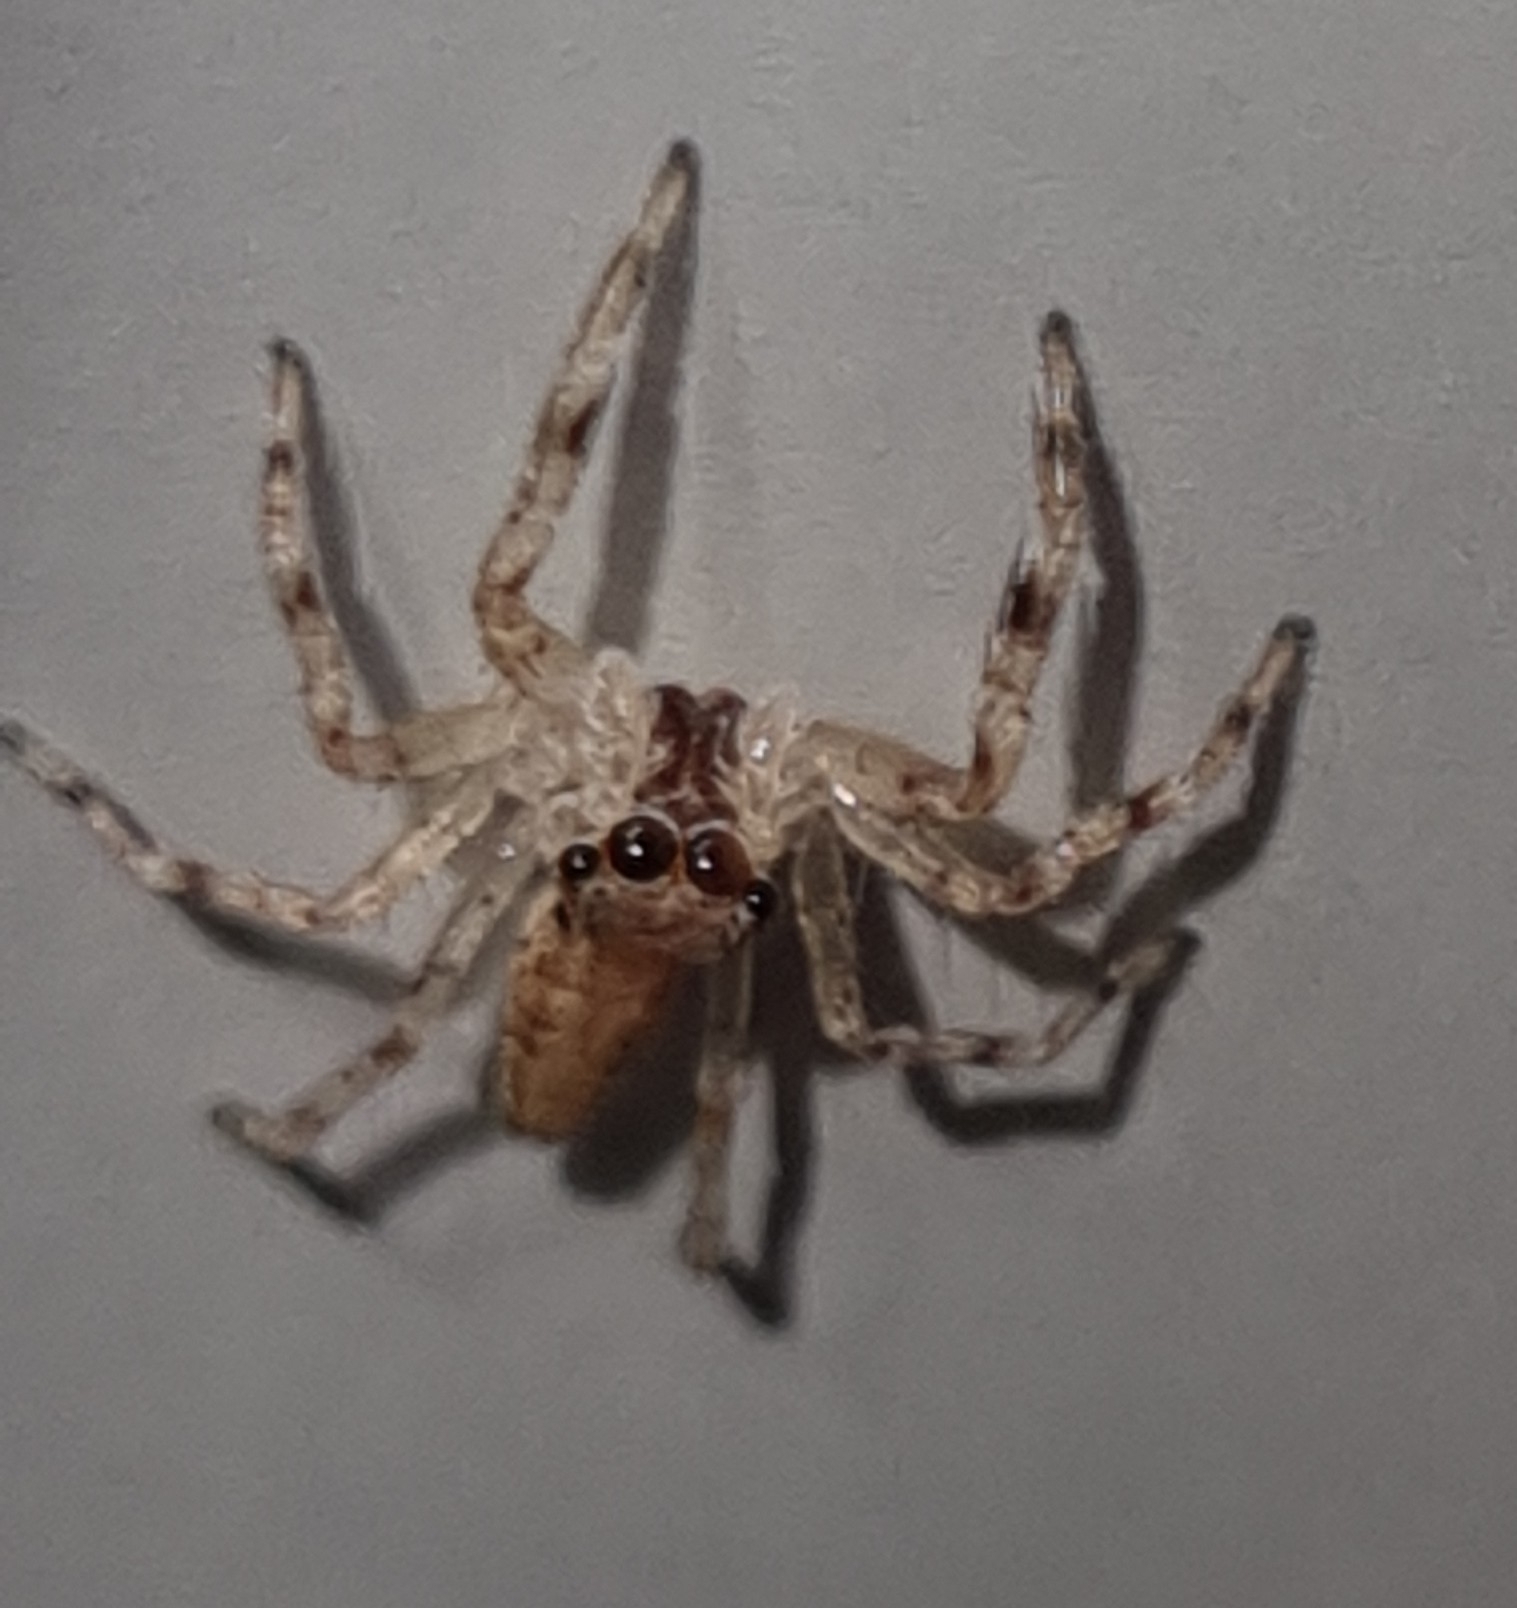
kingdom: Animalia
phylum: Arthropoda
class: Arachnida
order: Araneae
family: Salticidae
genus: Helpis
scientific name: Helpis minitabunda
